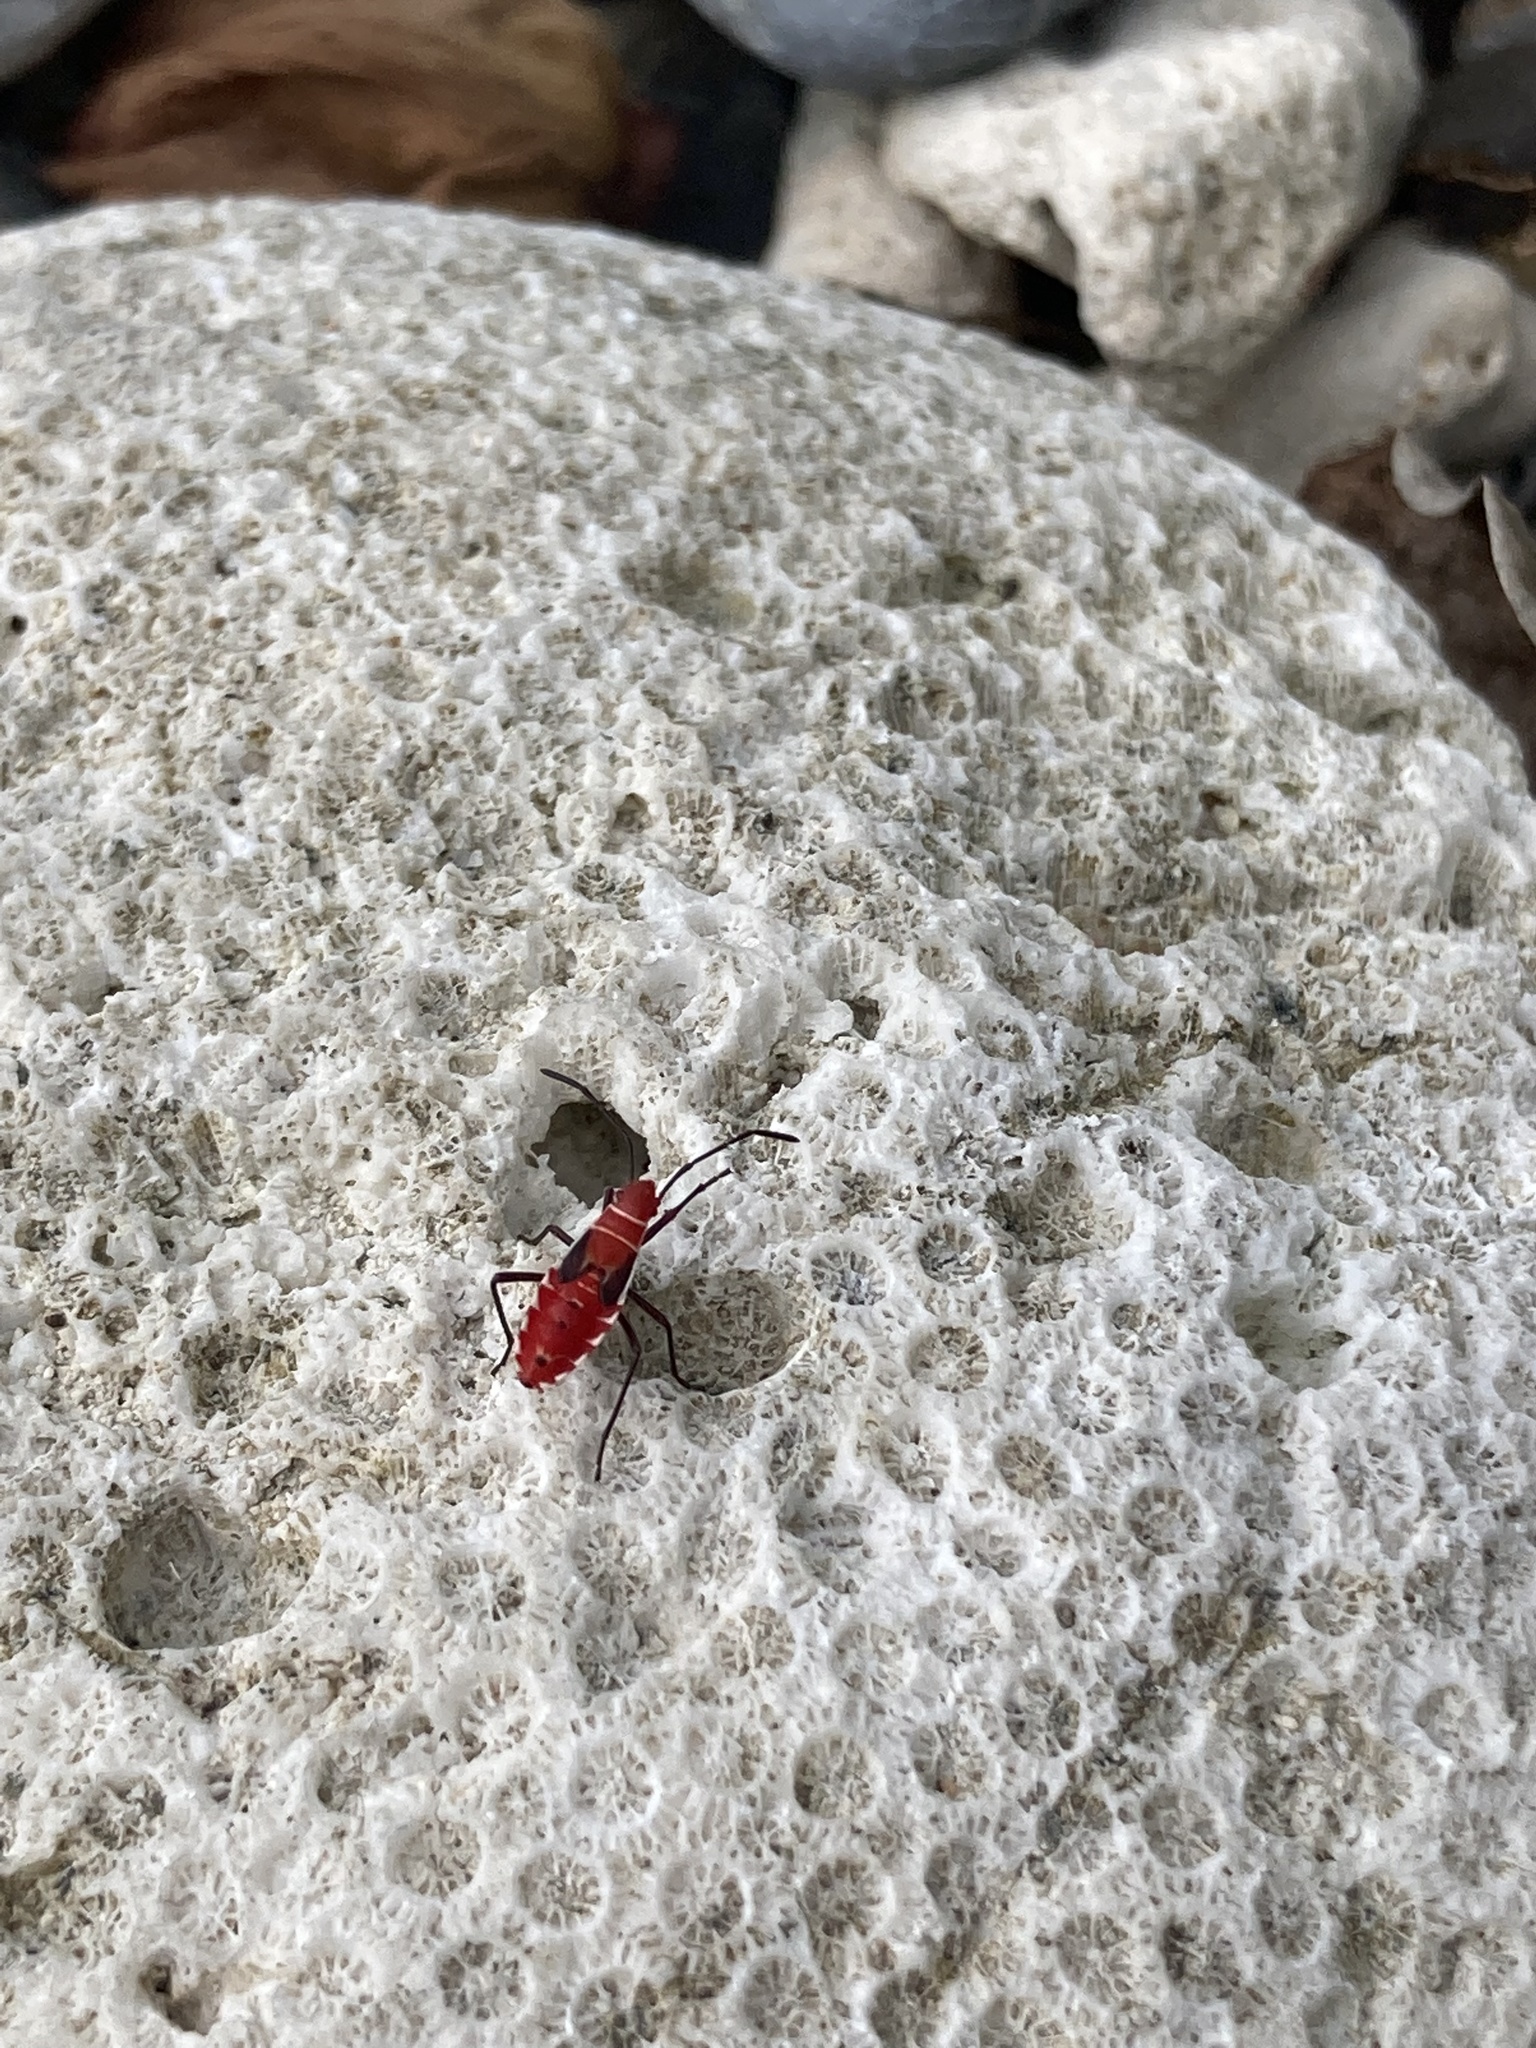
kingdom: Animalia
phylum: Arthropoda
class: Insecta
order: Hemiptera
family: Pyrrhocoridae
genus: Dysdercus
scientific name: Dysdercus andreae
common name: St. andrew's cotton stainer
